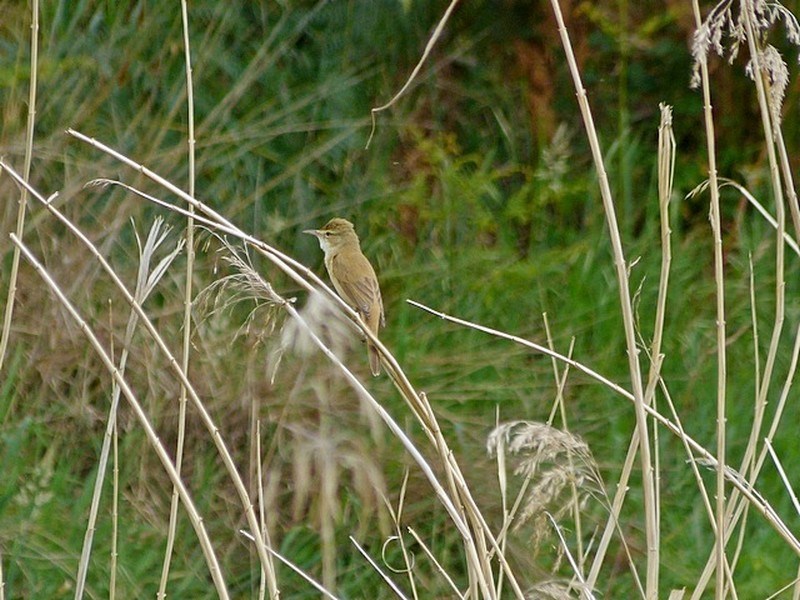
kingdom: Animalia
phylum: Chordata
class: Aves
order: Passeriformes
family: Acrocephalidae
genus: Acrocephalus
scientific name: Acrocephalus australis
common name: Australian reed warbler
